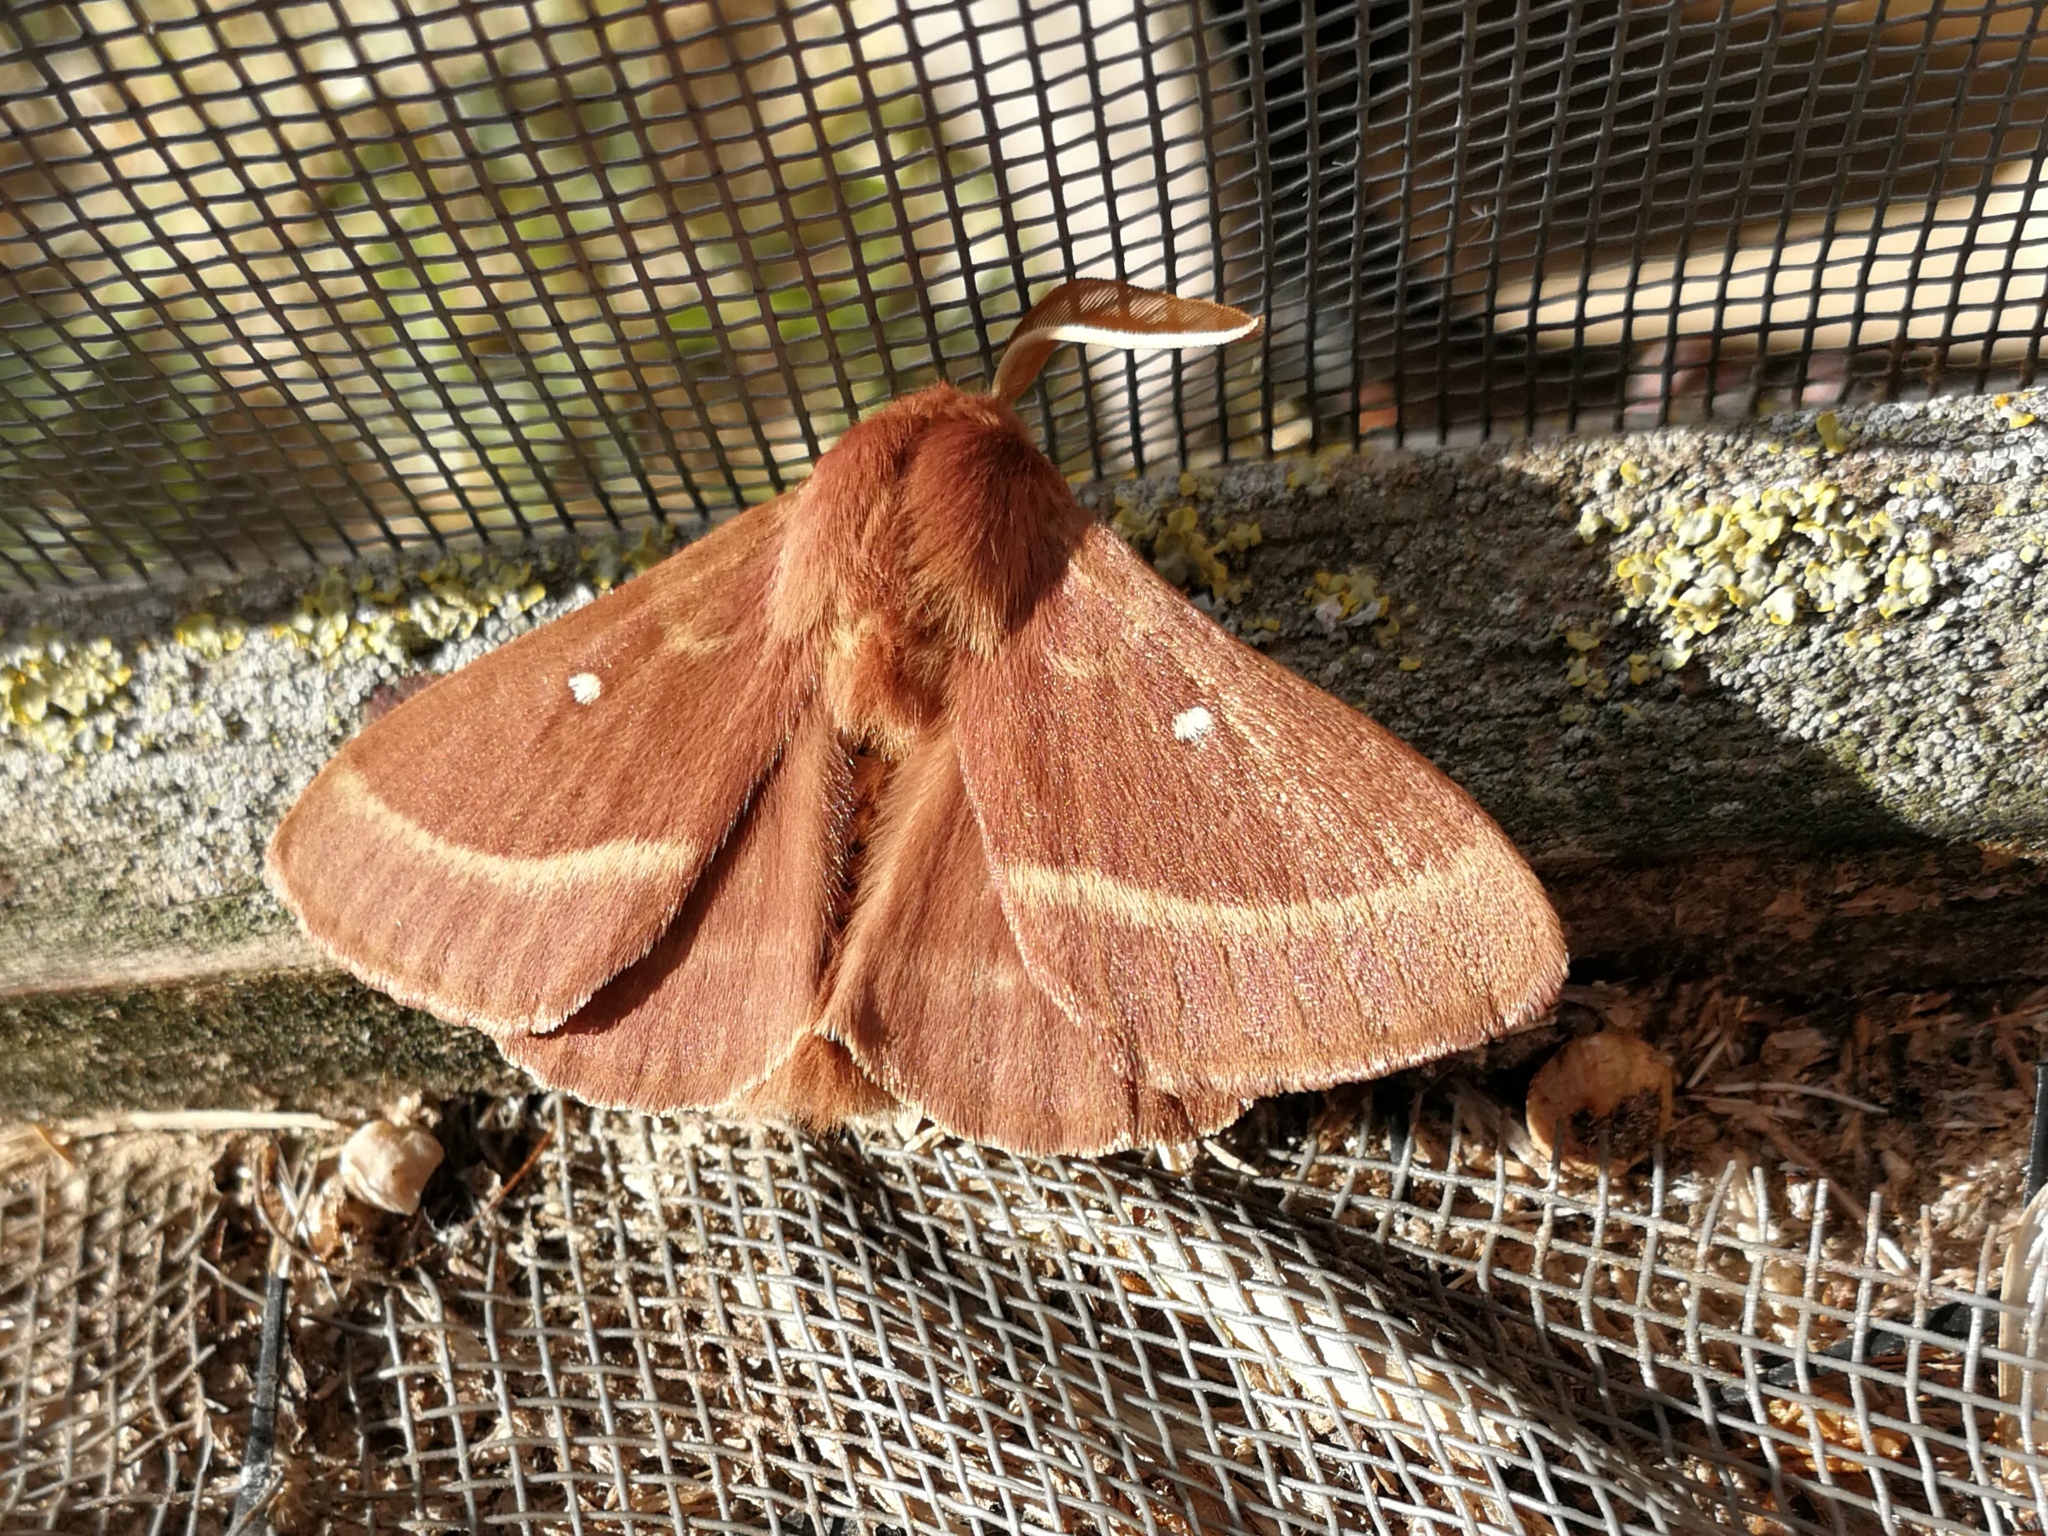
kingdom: Animalia
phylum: Arthropoda
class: Insecta
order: Lepidoptera
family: Lasiocampidae
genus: Lasiocampa
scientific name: Lasiocampa trifolii
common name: Grass eggar
